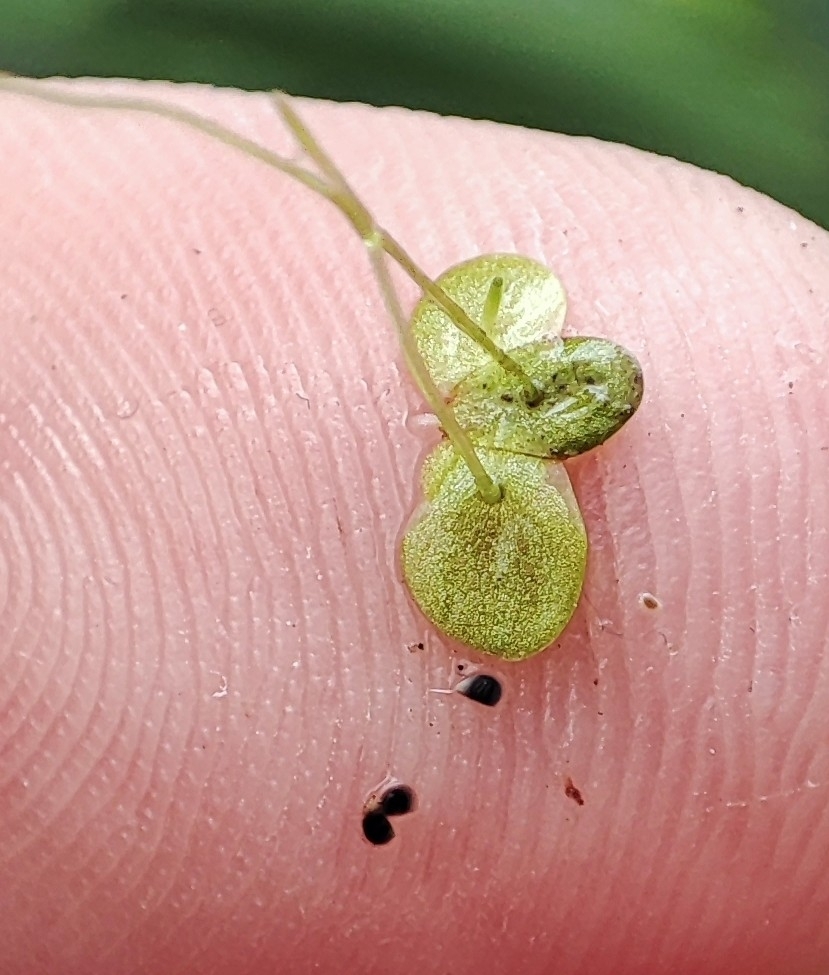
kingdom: Plantae
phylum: Tracheophyta
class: Liliopsida
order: Alismatales
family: Araceae
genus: Lemna
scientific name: Lemna minor
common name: Common duckweed
